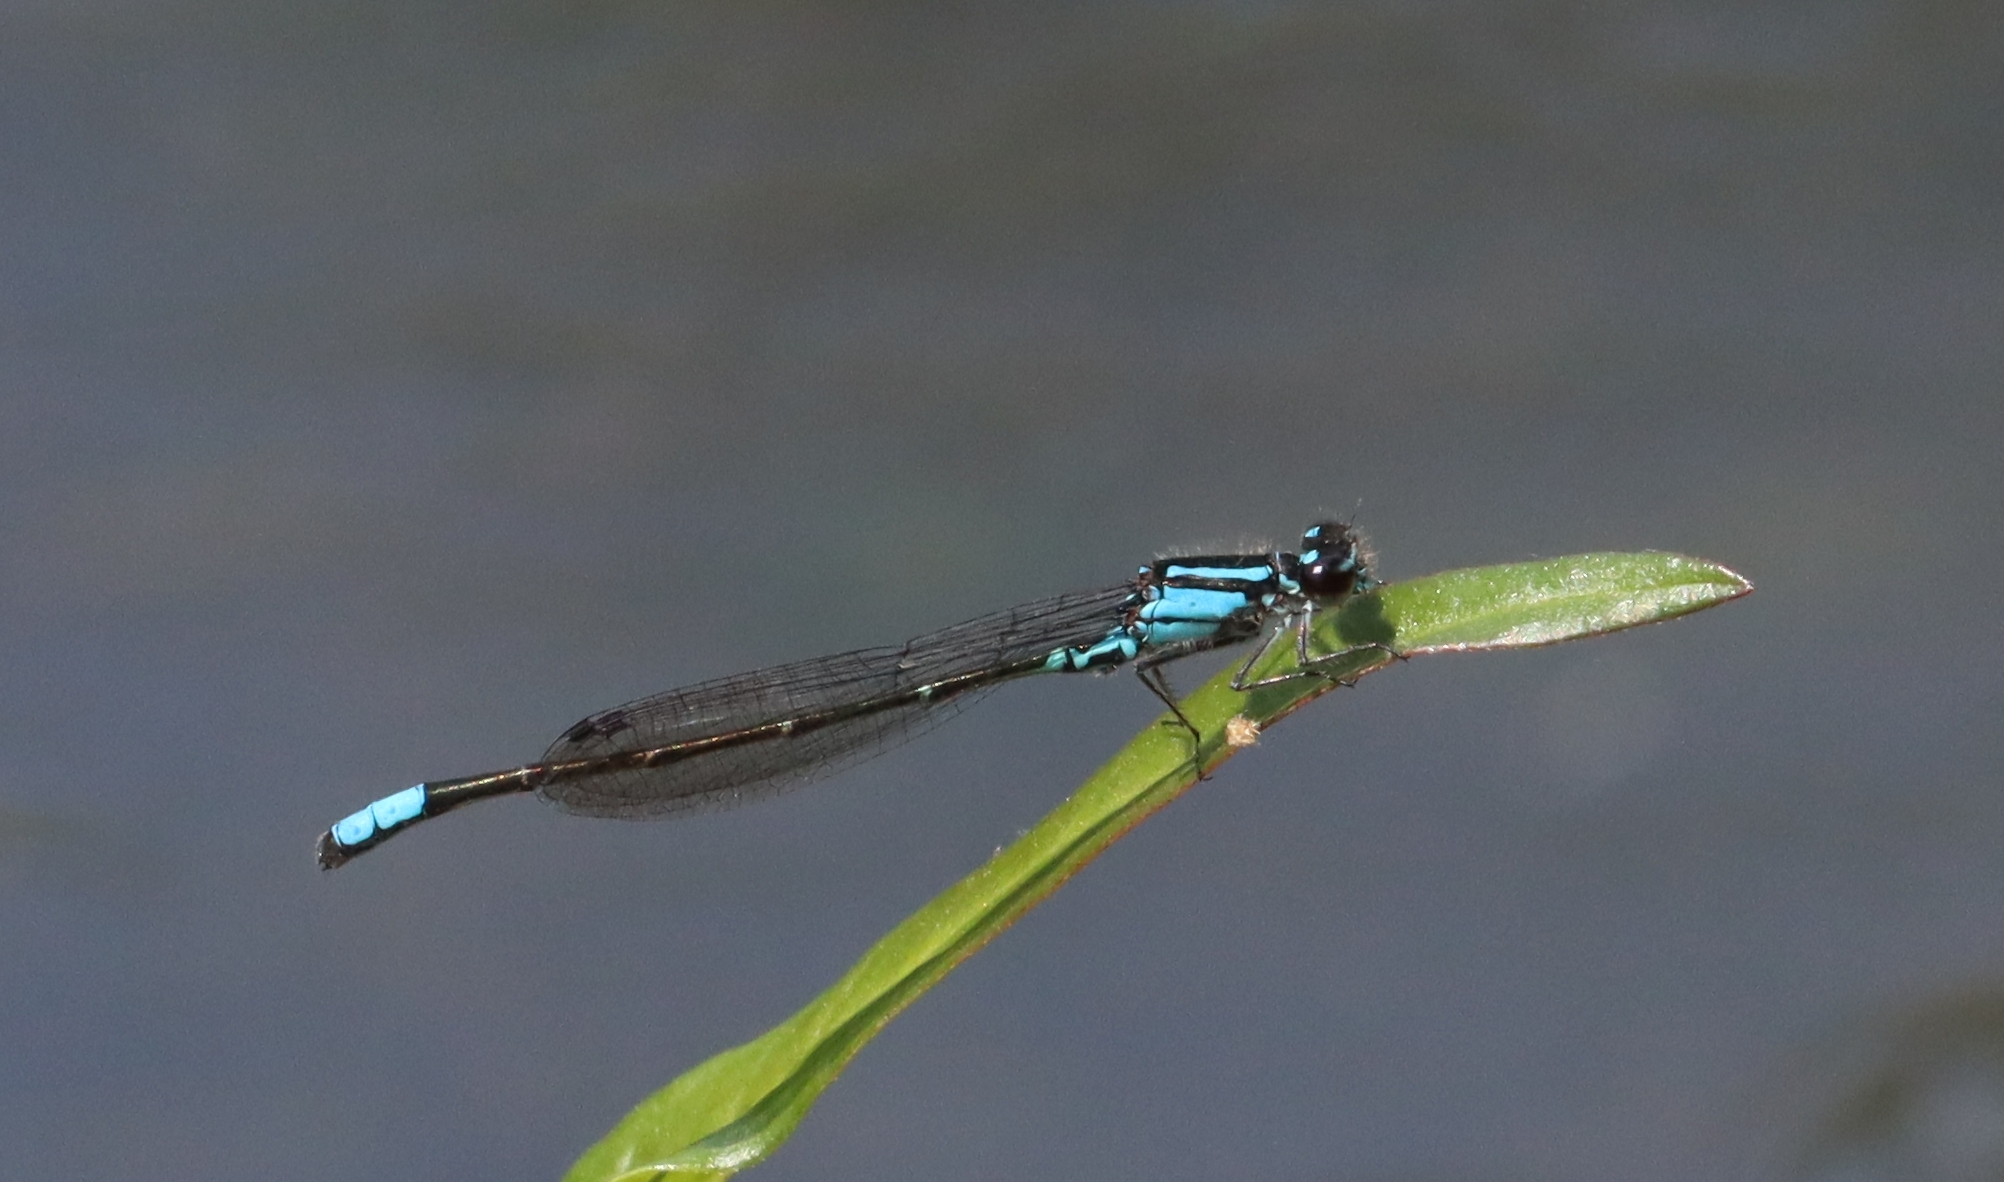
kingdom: Animalia
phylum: Arthropoda
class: Insecta
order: Odonata
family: Coenagrionidae
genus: Enallagma
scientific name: Enallagma geminatum
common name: Skimming bluet
